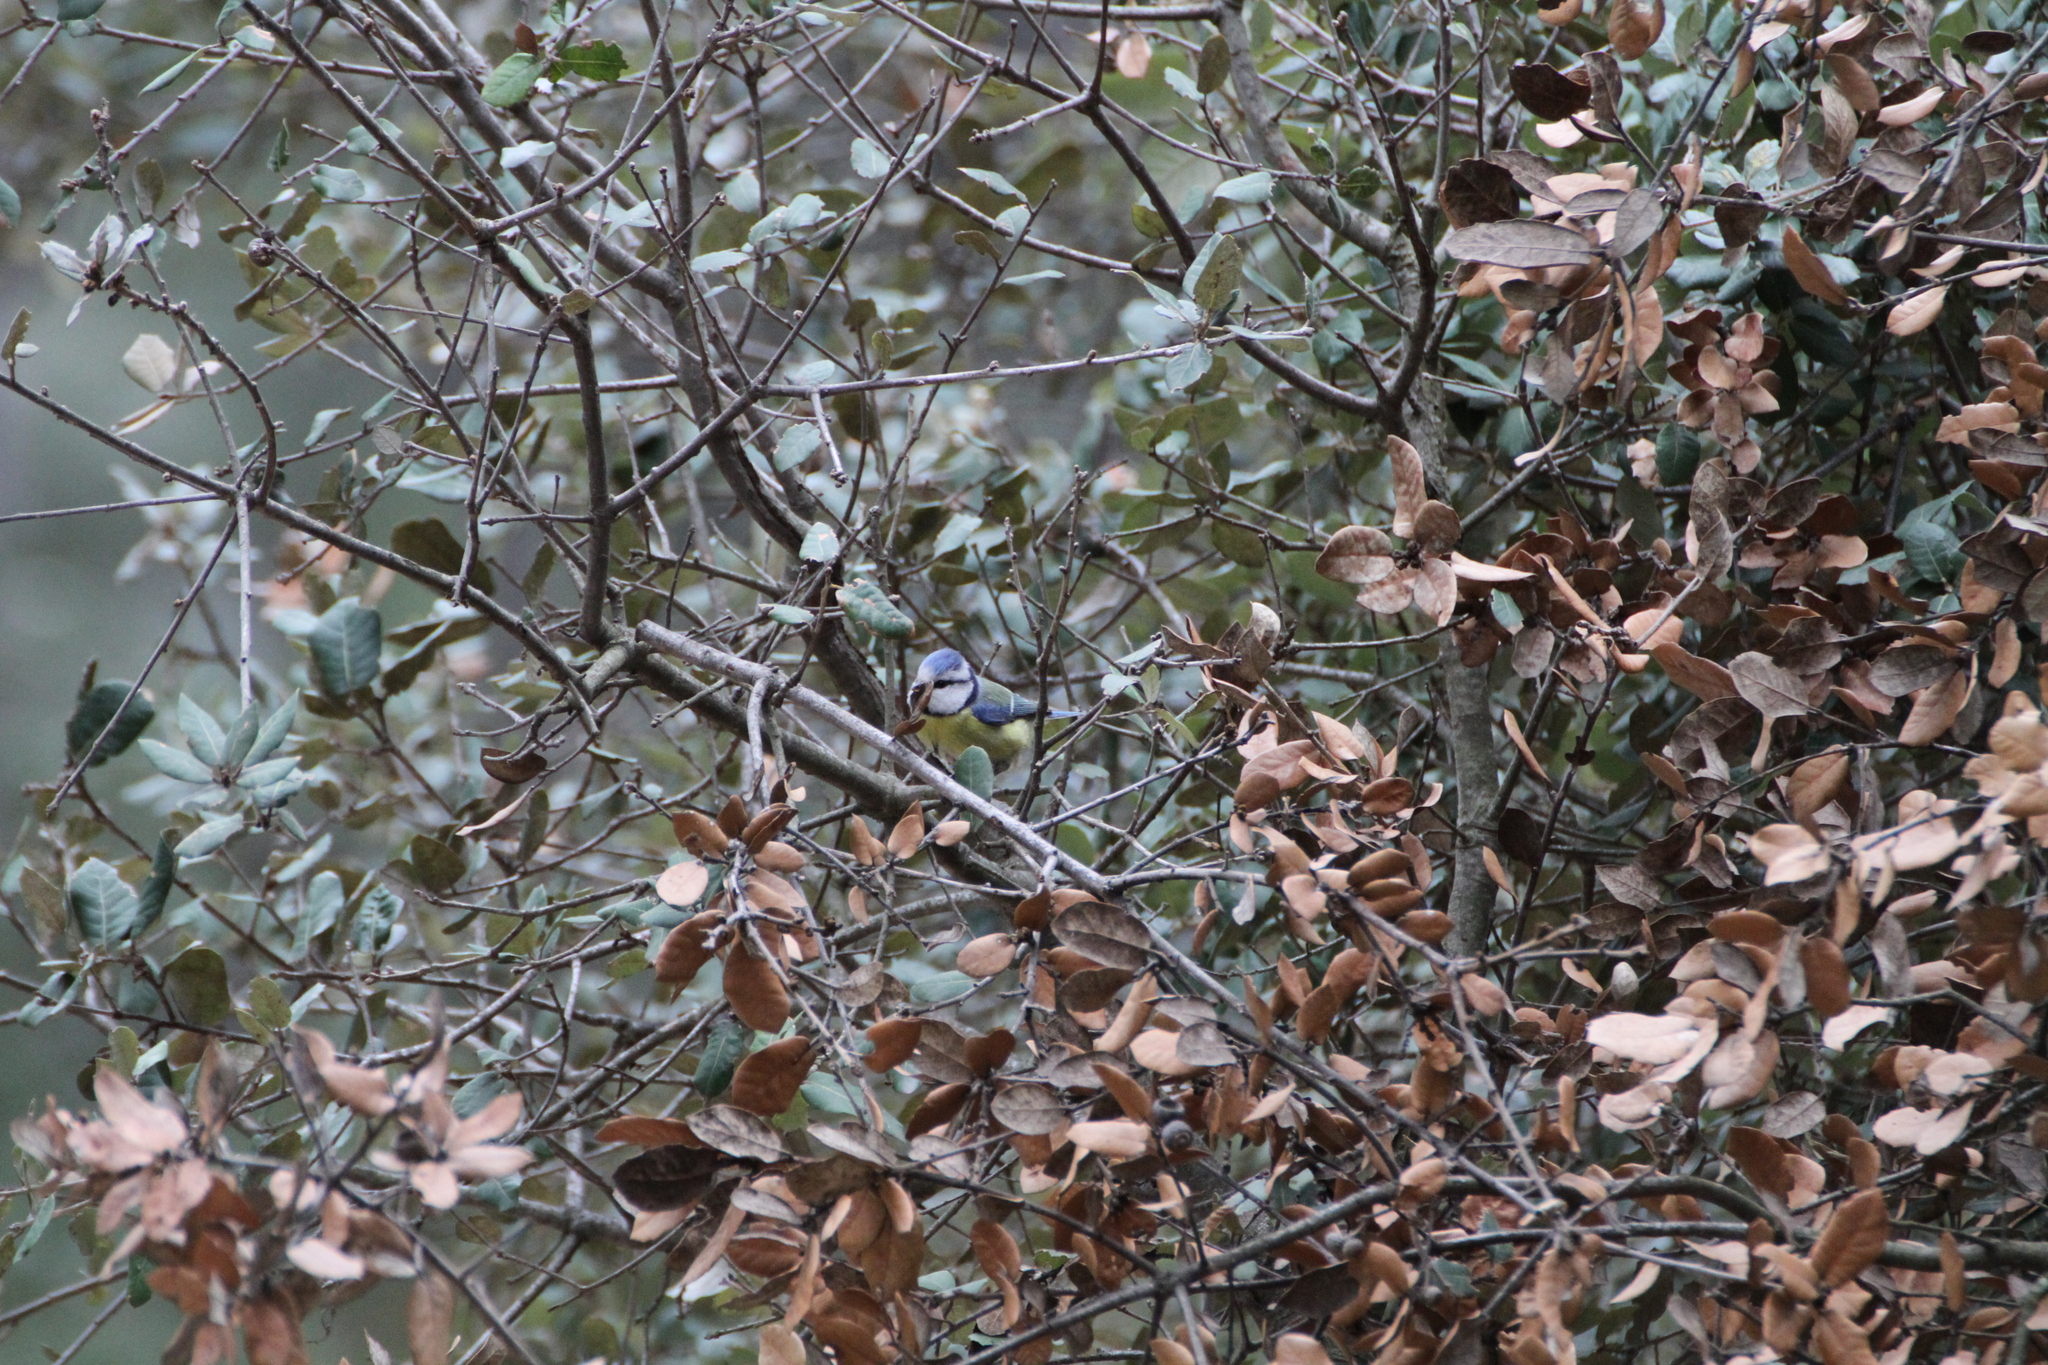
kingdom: Animalia
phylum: Chordata
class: Aves
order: Passeriformes
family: Paridae
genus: Cyanistes
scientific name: Cyanistes caeruleus
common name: Eurasian blue tit
